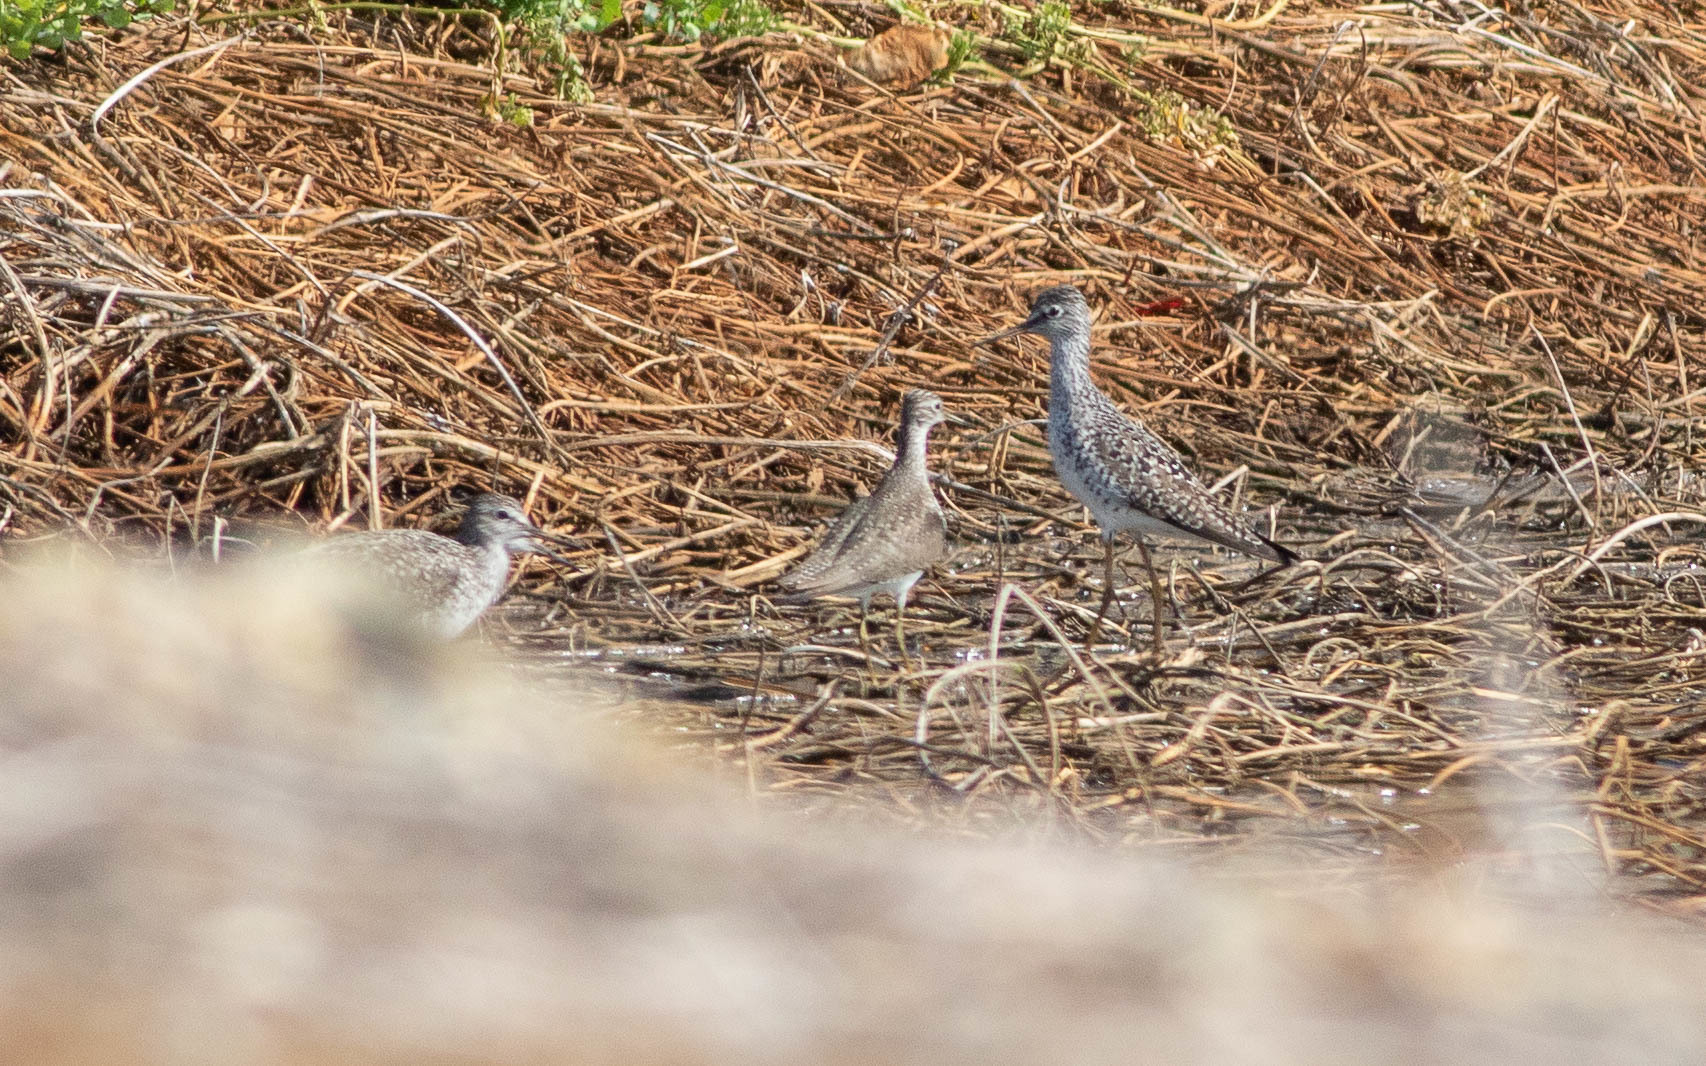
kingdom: Animalia
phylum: Chordata
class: Aves
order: Charadriiformes
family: Scolopacidae
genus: Tringa
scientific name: Tringa melanoleuca
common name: Greater yellowlegs
